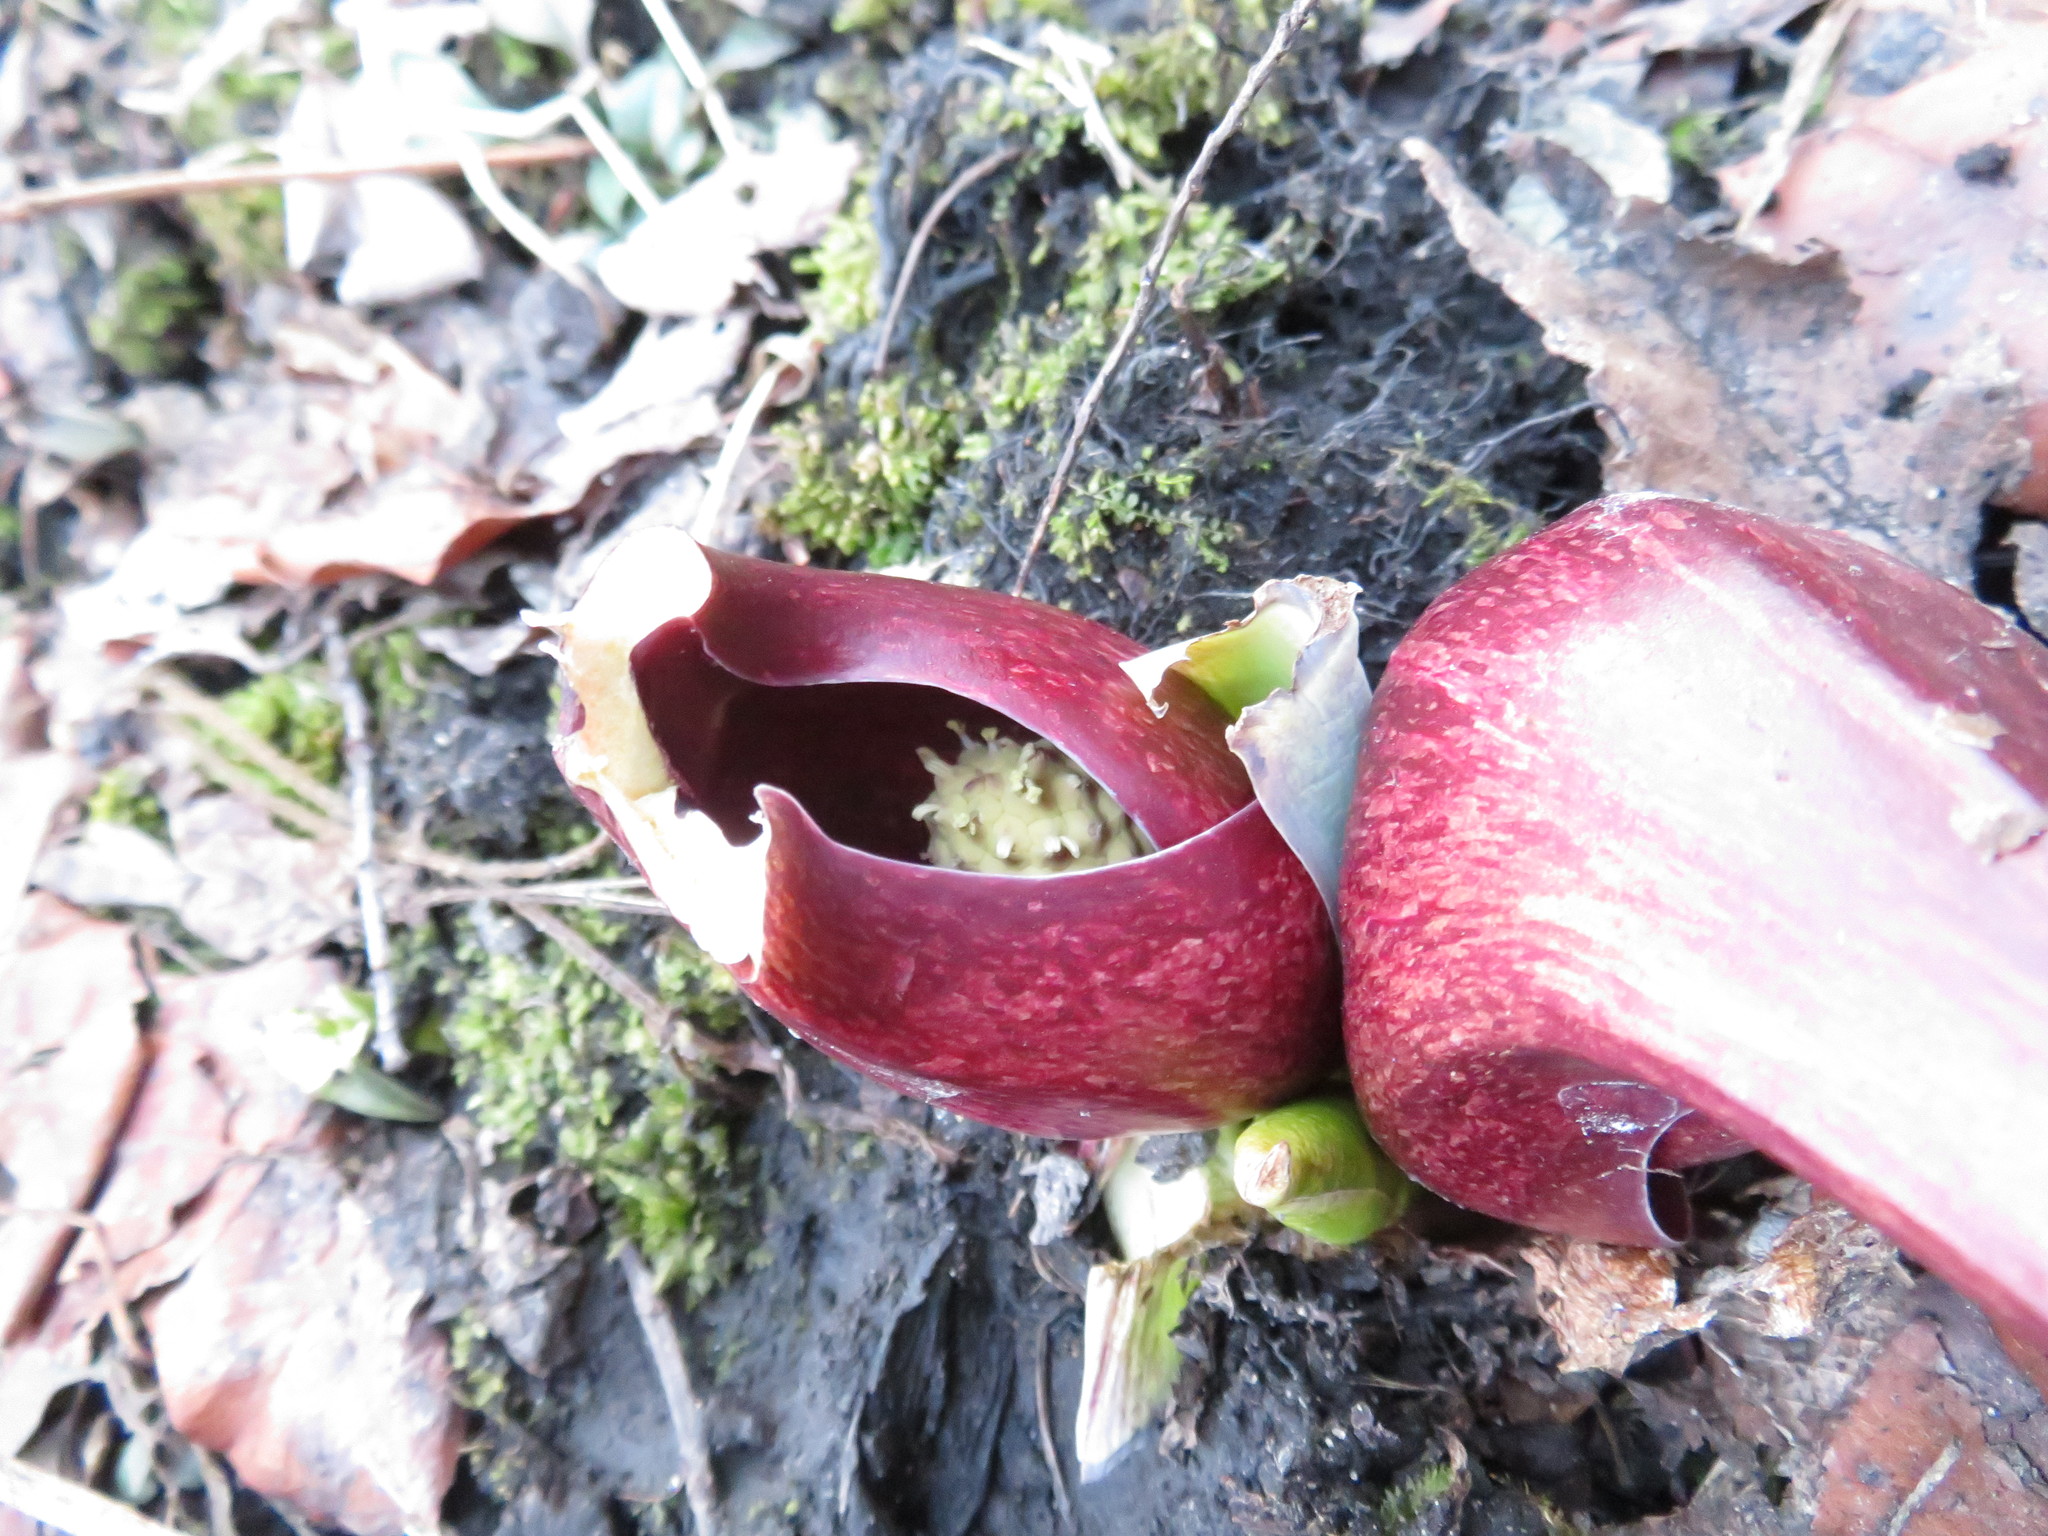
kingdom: Plantae
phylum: Tracheophyta
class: Liliopsida
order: Alismatales
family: Araceae
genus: Symplocarpus
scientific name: Symplocarpus foetidus
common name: Eastern skunk cabbage
